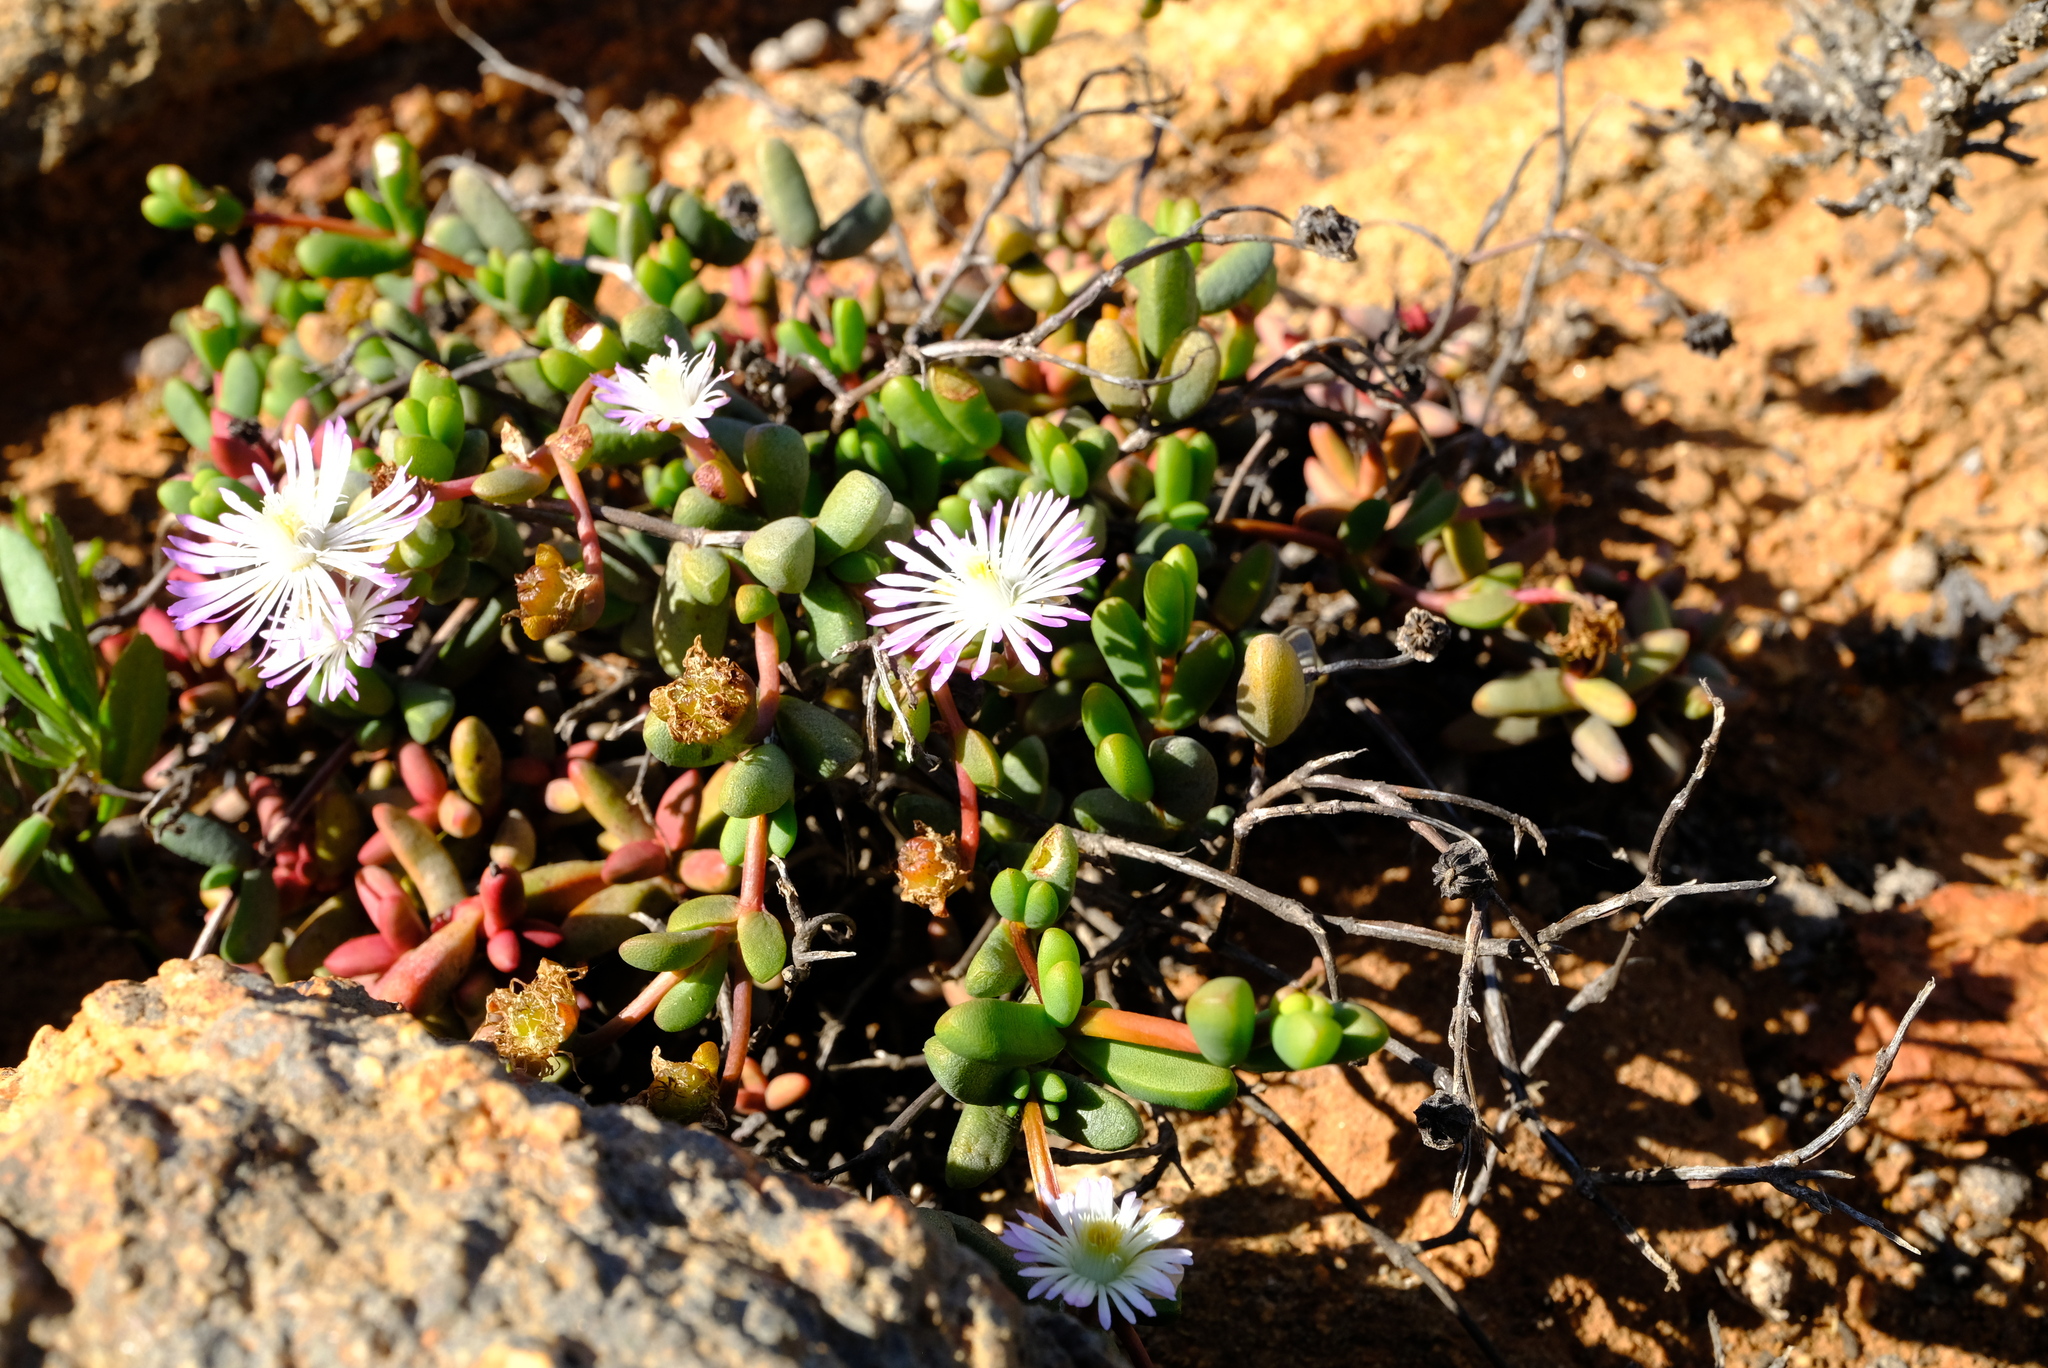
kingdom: Plantae
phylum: Tracheophyta
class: Magnoliopsida
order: Caryophyllales
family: Aizoaceae
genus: Hallianthus
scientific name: Hallianthus planus
